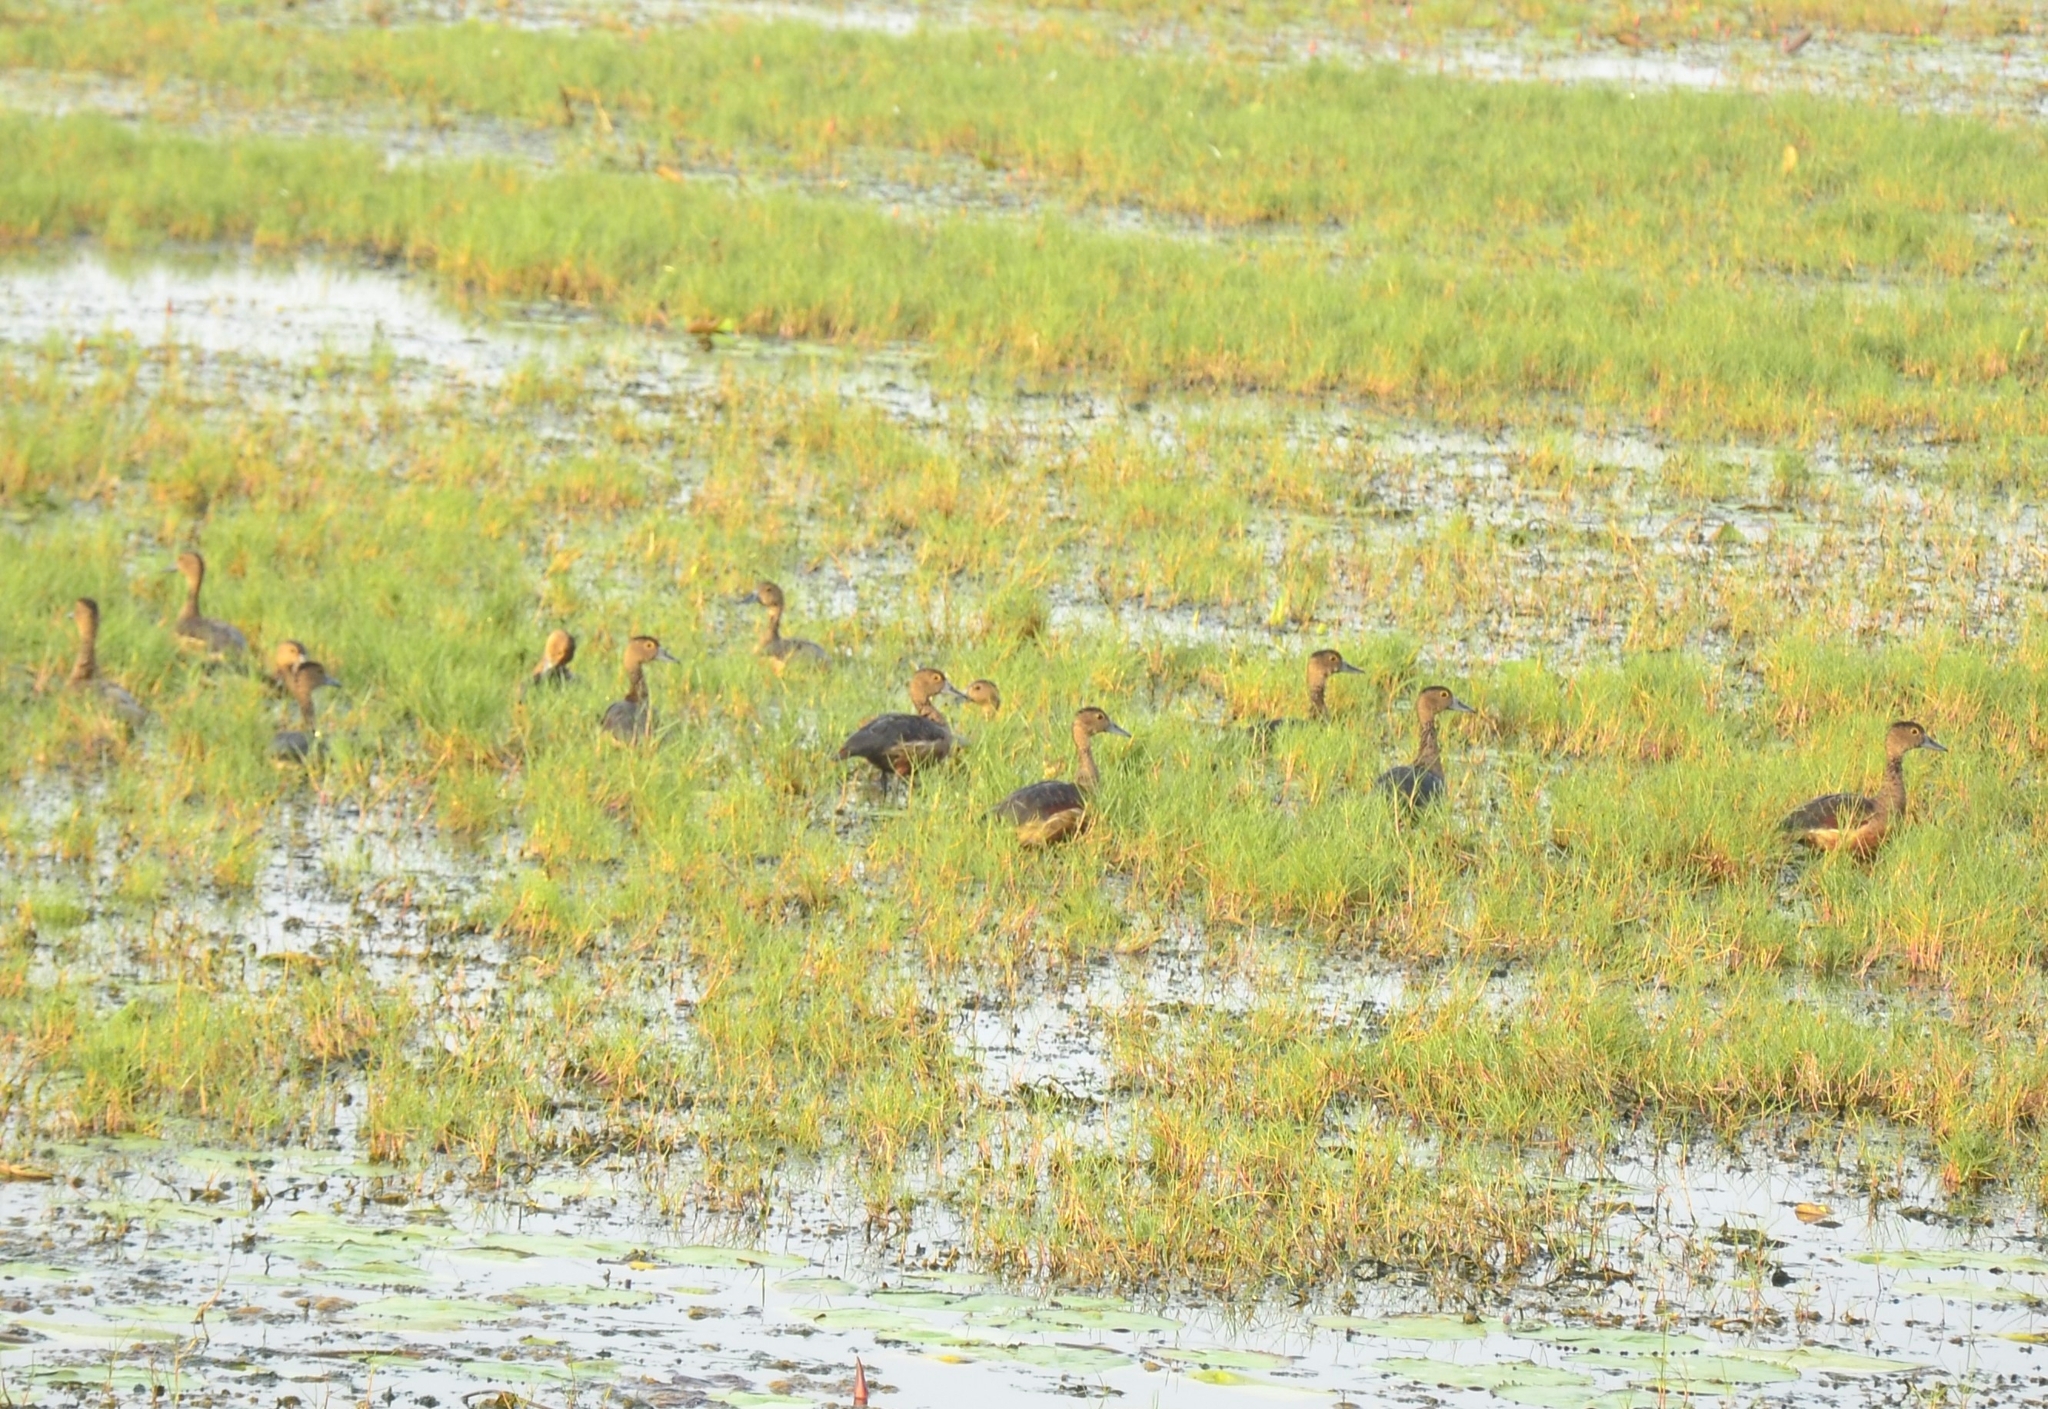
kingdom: Animalia
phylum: Chordata
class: Aves
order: Anseriformes
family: Anatidae
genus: Dendrocygna
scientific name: Dendrocygna javanica
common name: Lesser whistling-duck
